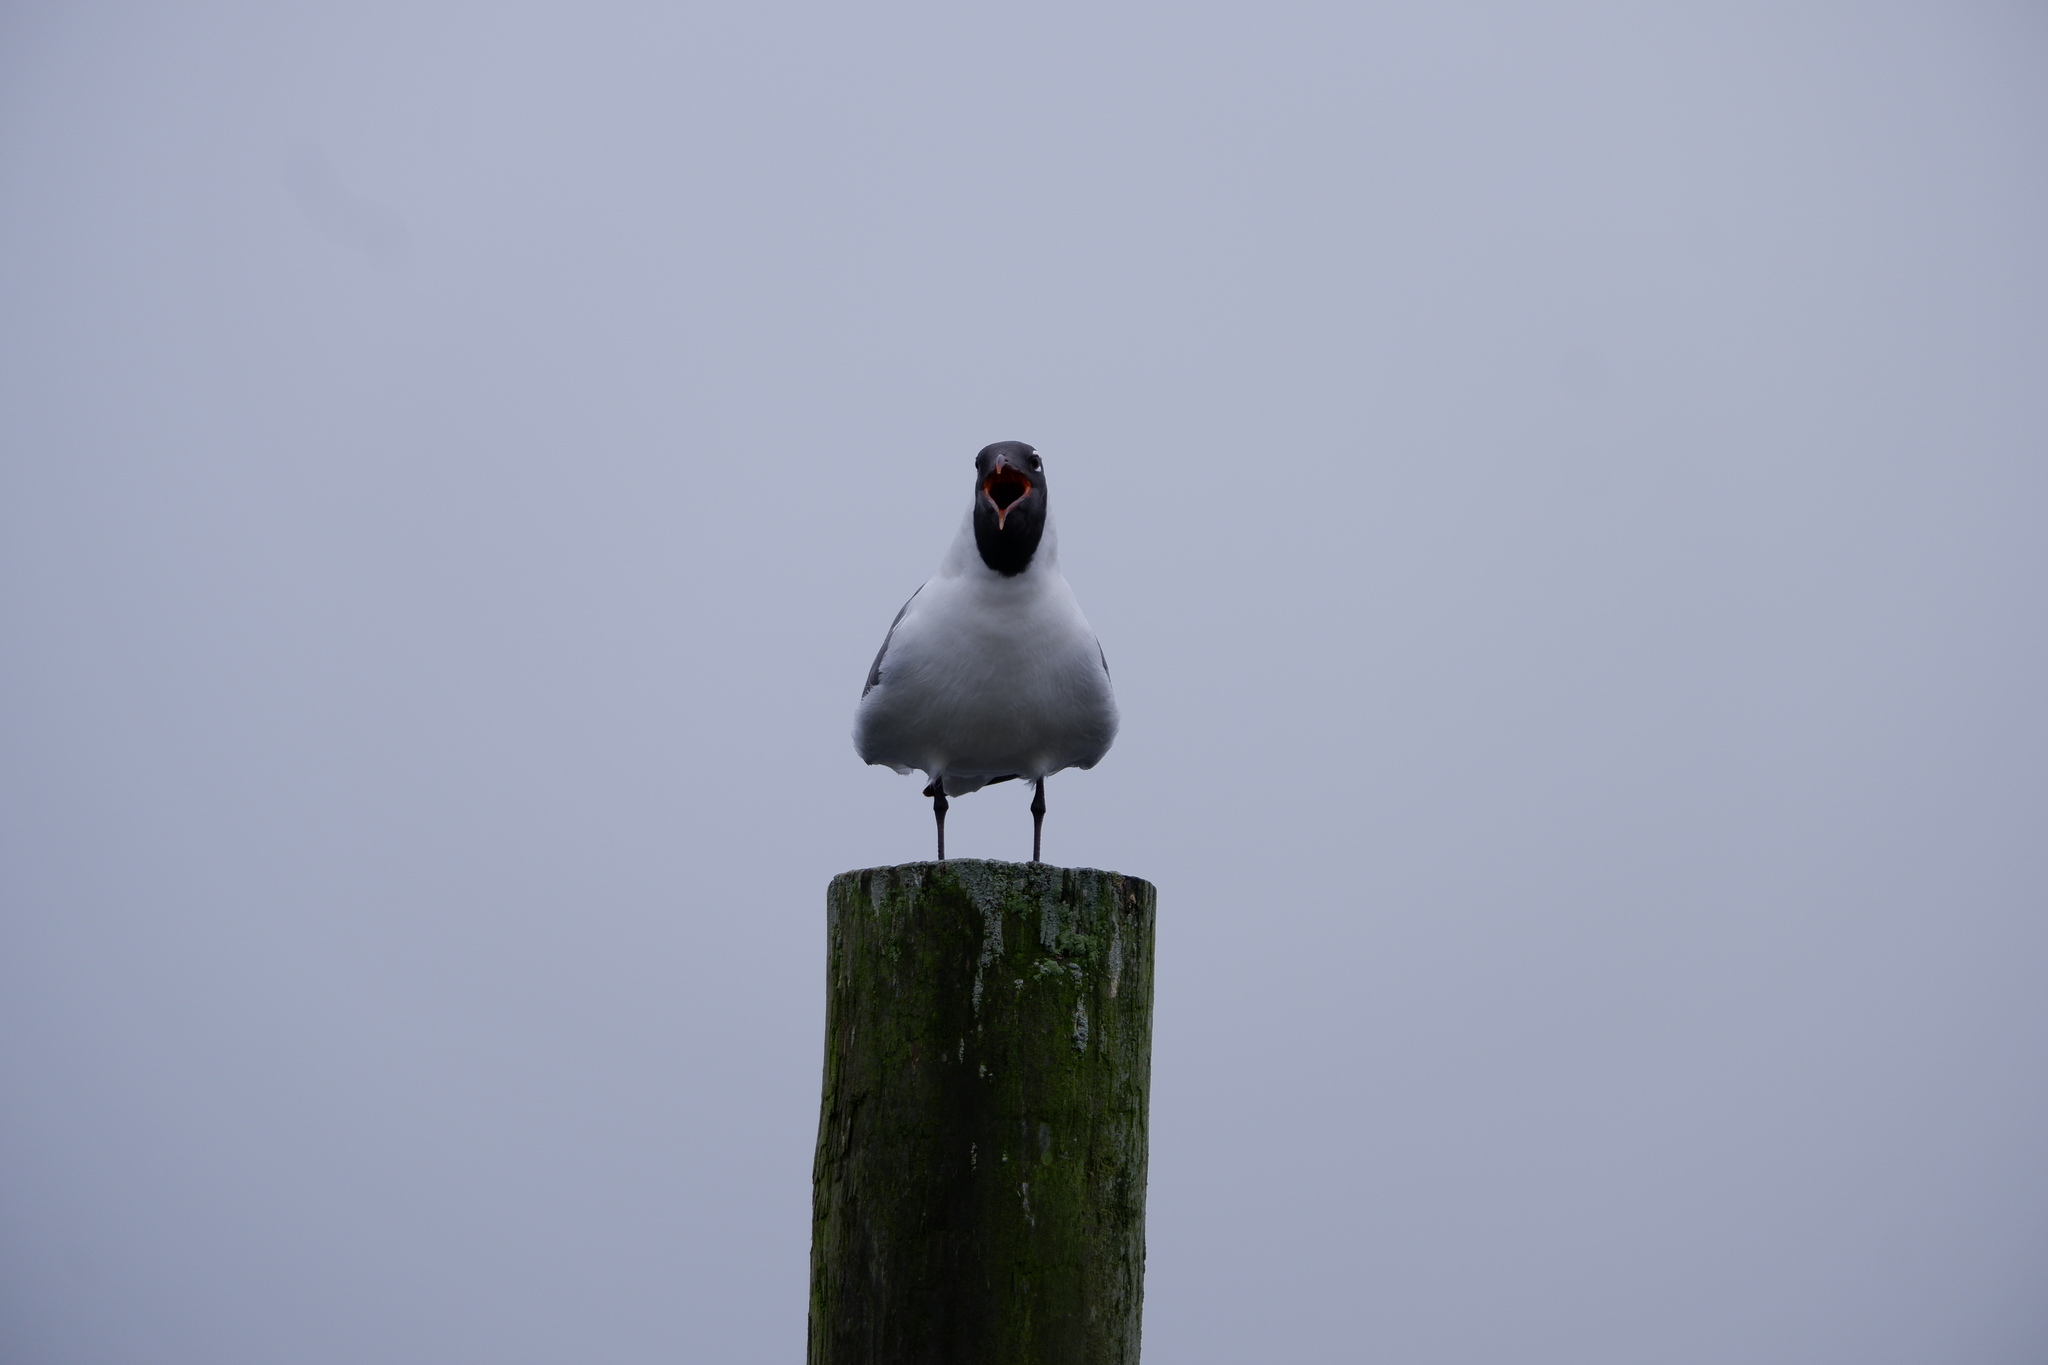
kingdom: Animalia
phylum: Chordata
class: Aves
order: Charadriiformes
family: Laridae
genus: Leucophaeus
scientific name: Leucophaeus atricilla
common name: Laughing gull
